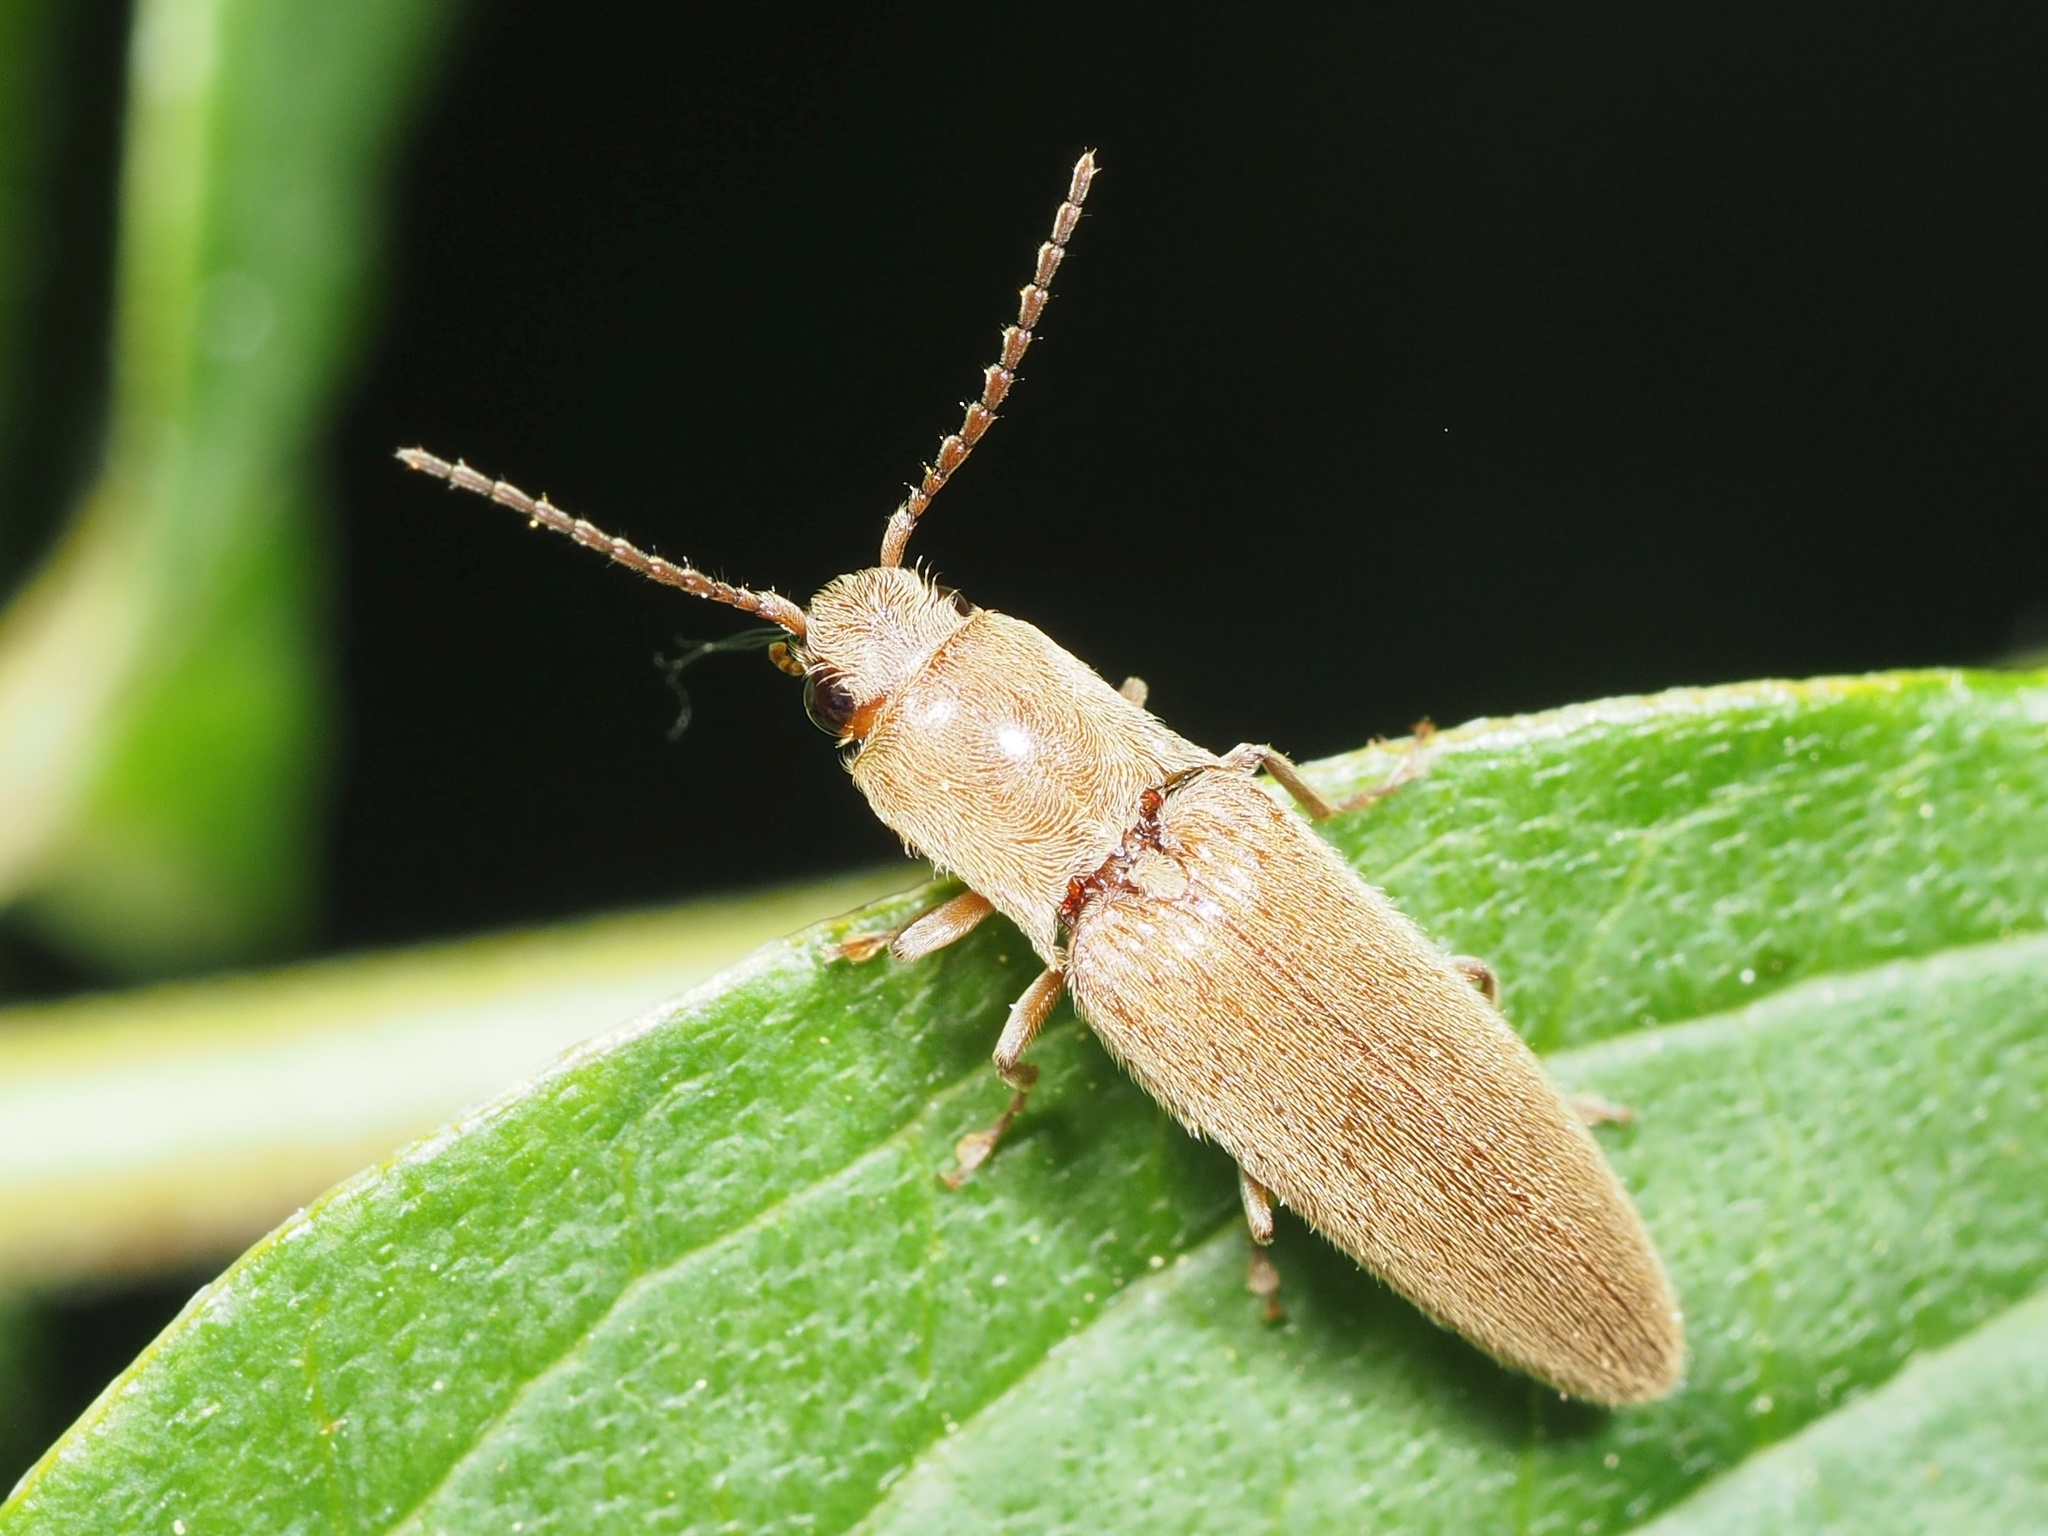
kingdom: Animalia
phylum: Arthropoda
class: Insecta
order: Coleoptera
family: Elateridae
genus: Synaptus
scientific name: Synaptus filiformis
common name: Hairy click beetle
